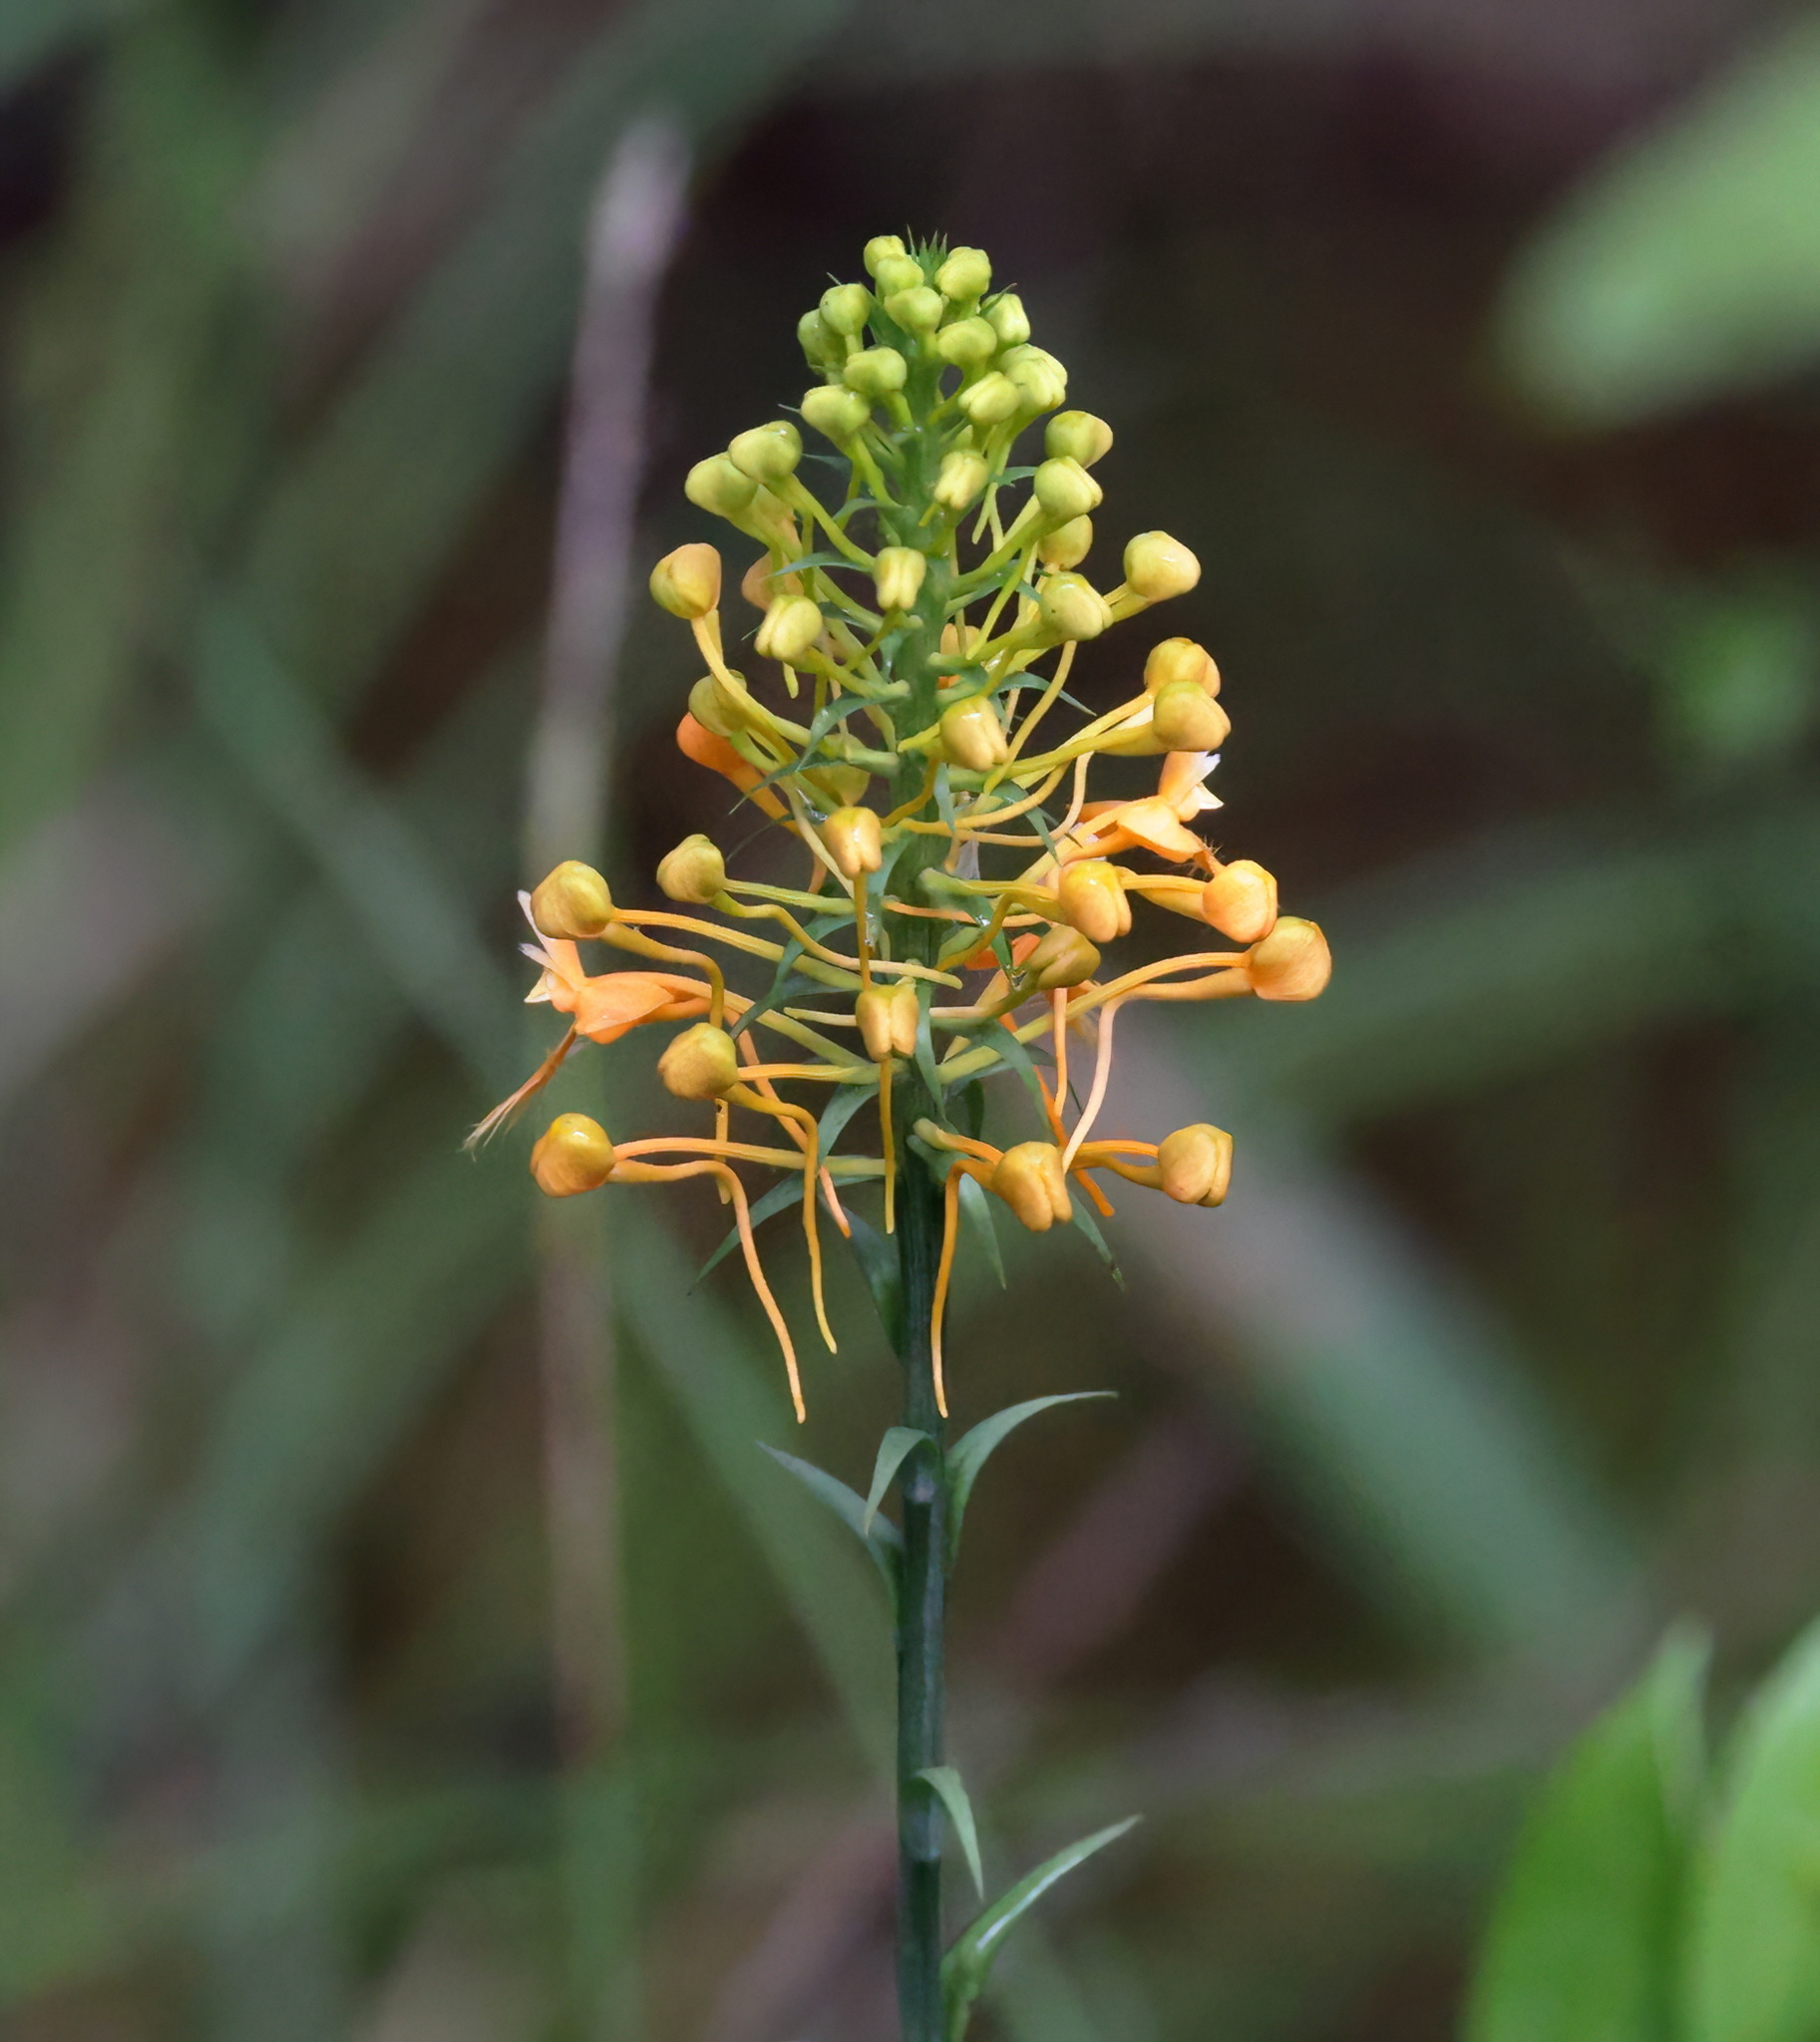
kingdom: Plantae
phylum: Tracheophyta
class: Liliopsida
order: Asparagales
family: Orchidaceae
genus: Platanthera
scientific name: Platanthera ciliaris
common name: Yellow fringed orchid
